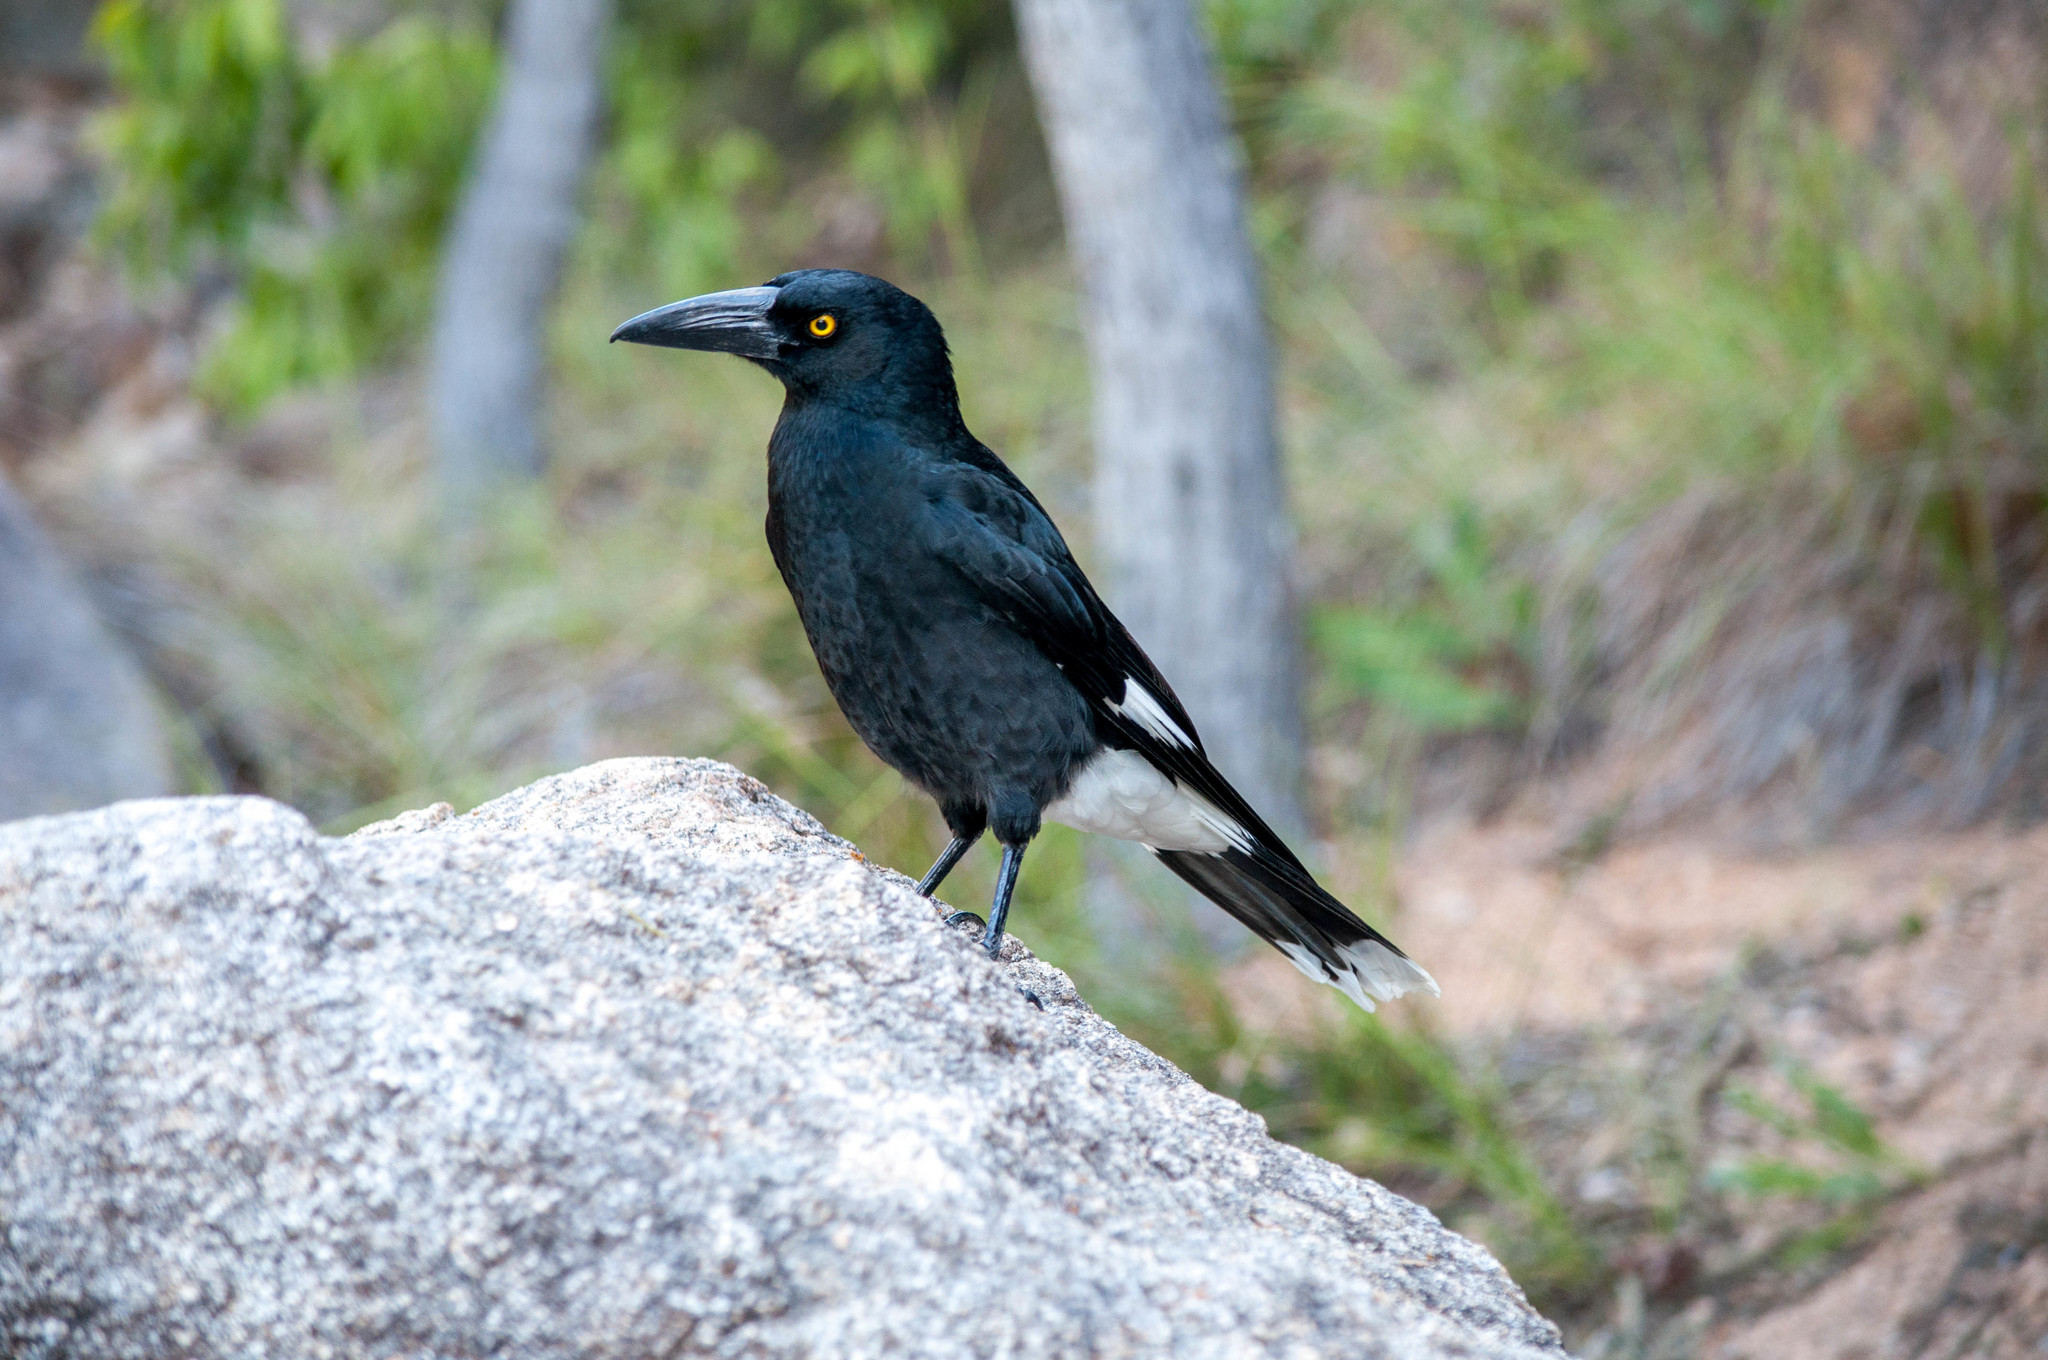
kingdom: Animalia
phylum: Chordata
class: Aves
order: Passeriformes
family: Cracticidae
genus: Strepera
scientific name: Strepera graculina
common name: Pied currawong
